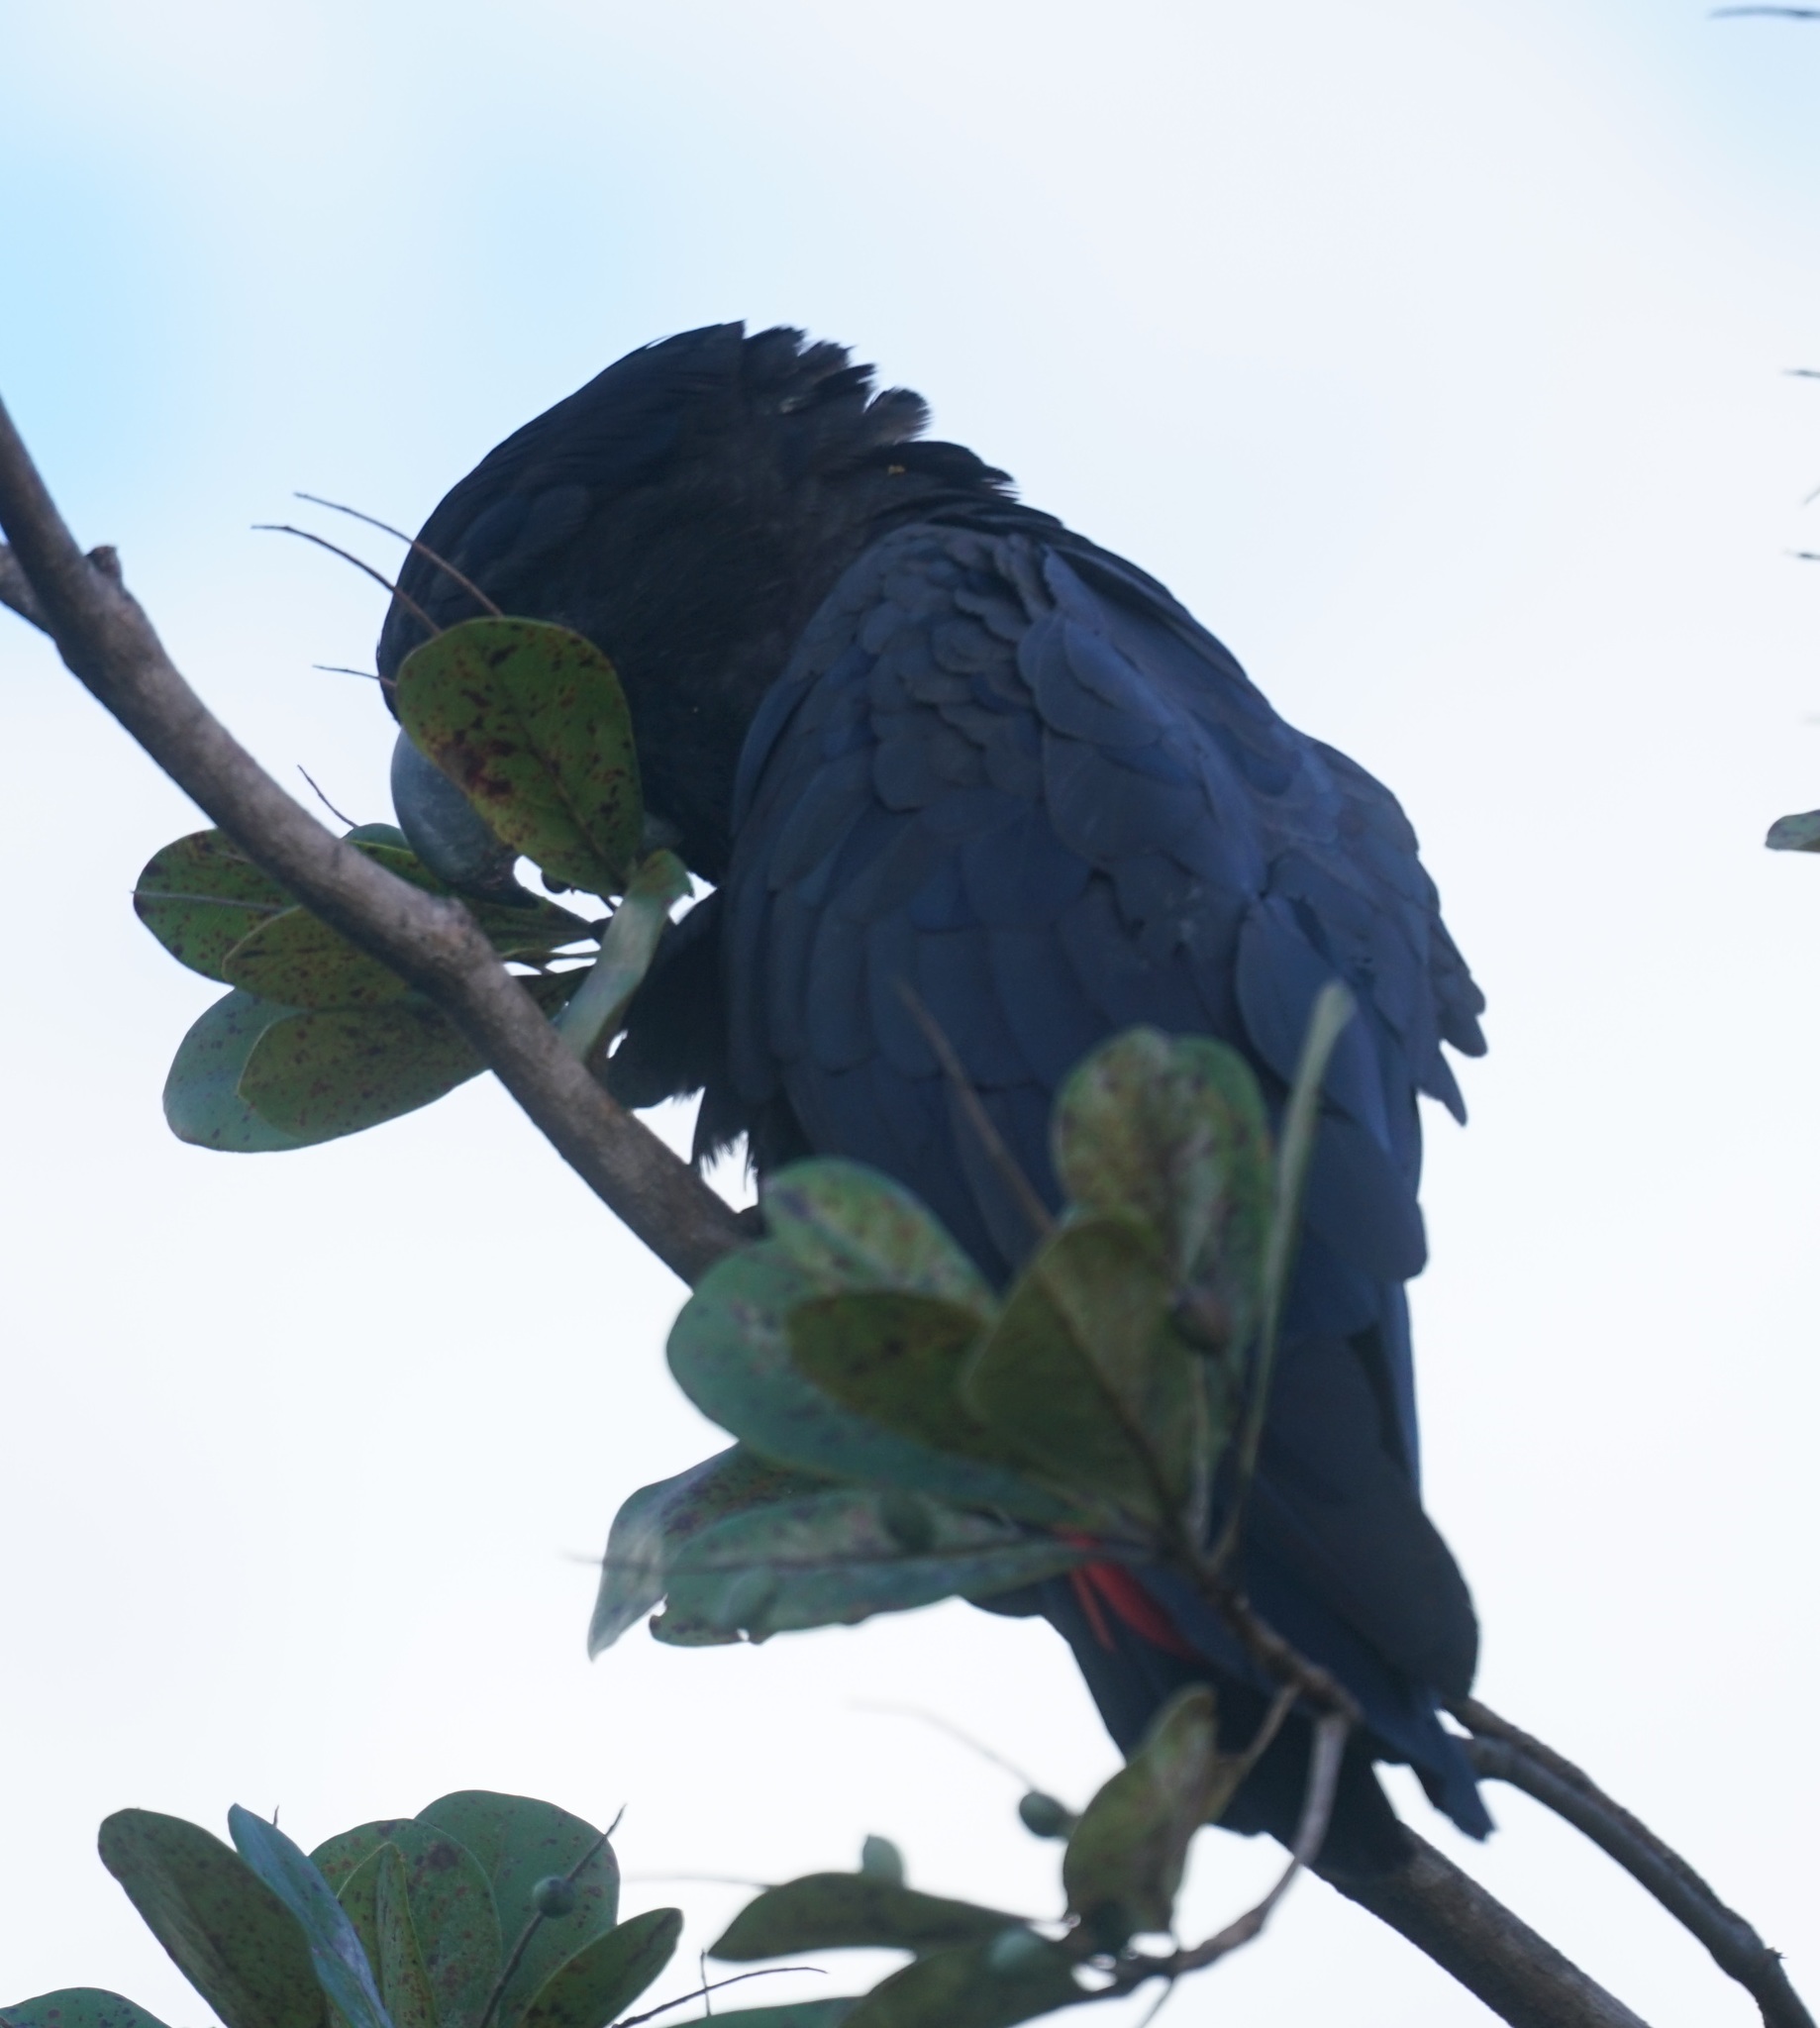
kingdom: Animalia
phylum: Chordata
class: Aves
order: Psittaciformes
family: Psittacidae
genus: Calyptorhynchus
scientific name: Calyptorhynchus banksii
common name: Red-tailed black cockatoo
